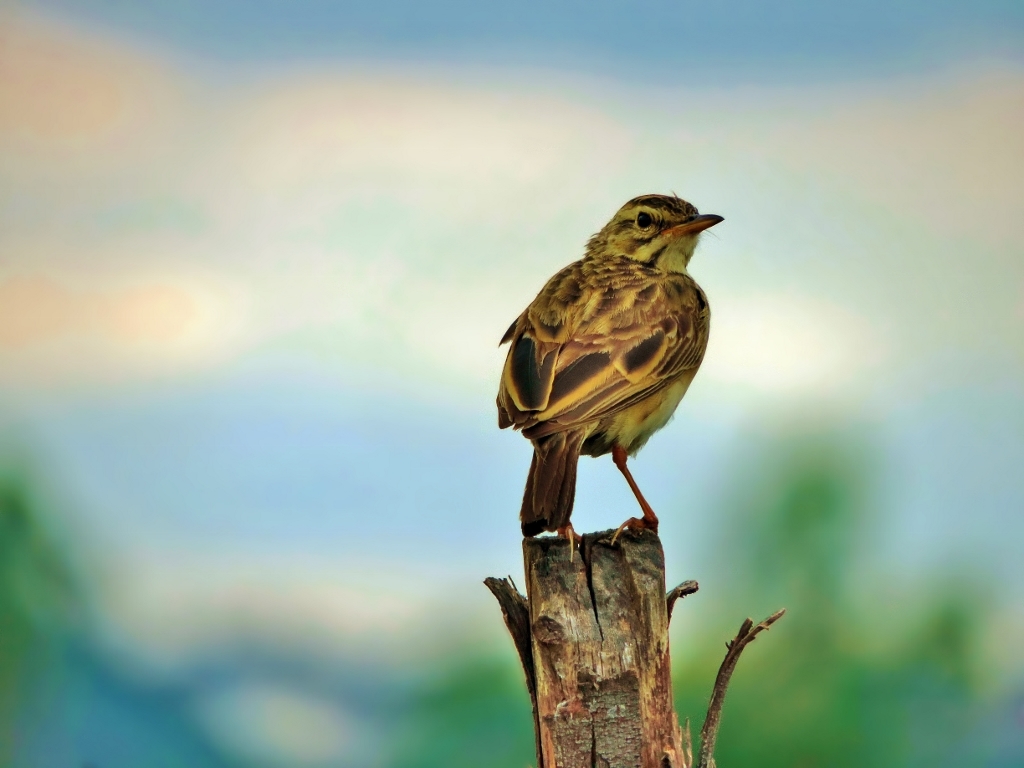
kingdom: Animalia
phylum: Chordata
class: Aves
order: Passeriformes
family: Motacillidae
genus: Anthus
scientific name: Anthus cinnamomeus
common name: African pipit
